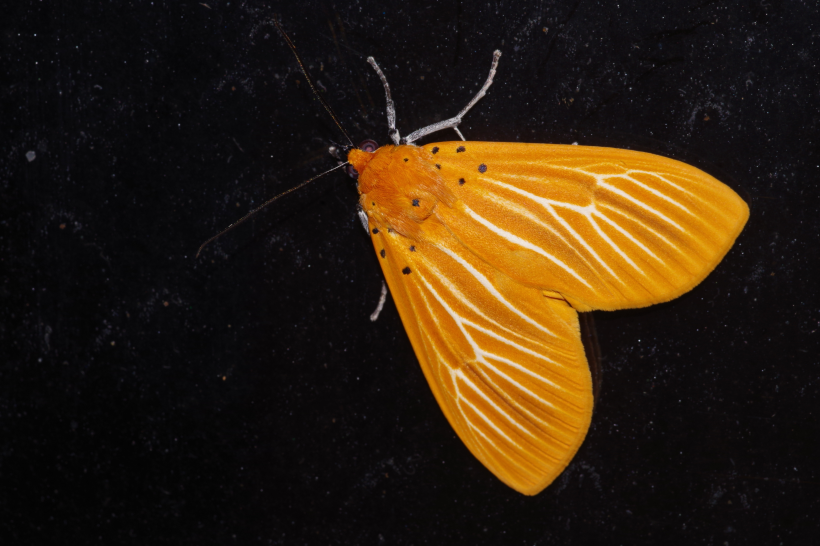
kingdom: Animalia
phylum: Arthropoda
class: Insecta
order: Lepidoptera
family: Erebidae
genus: Asota
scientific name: Asota egens
